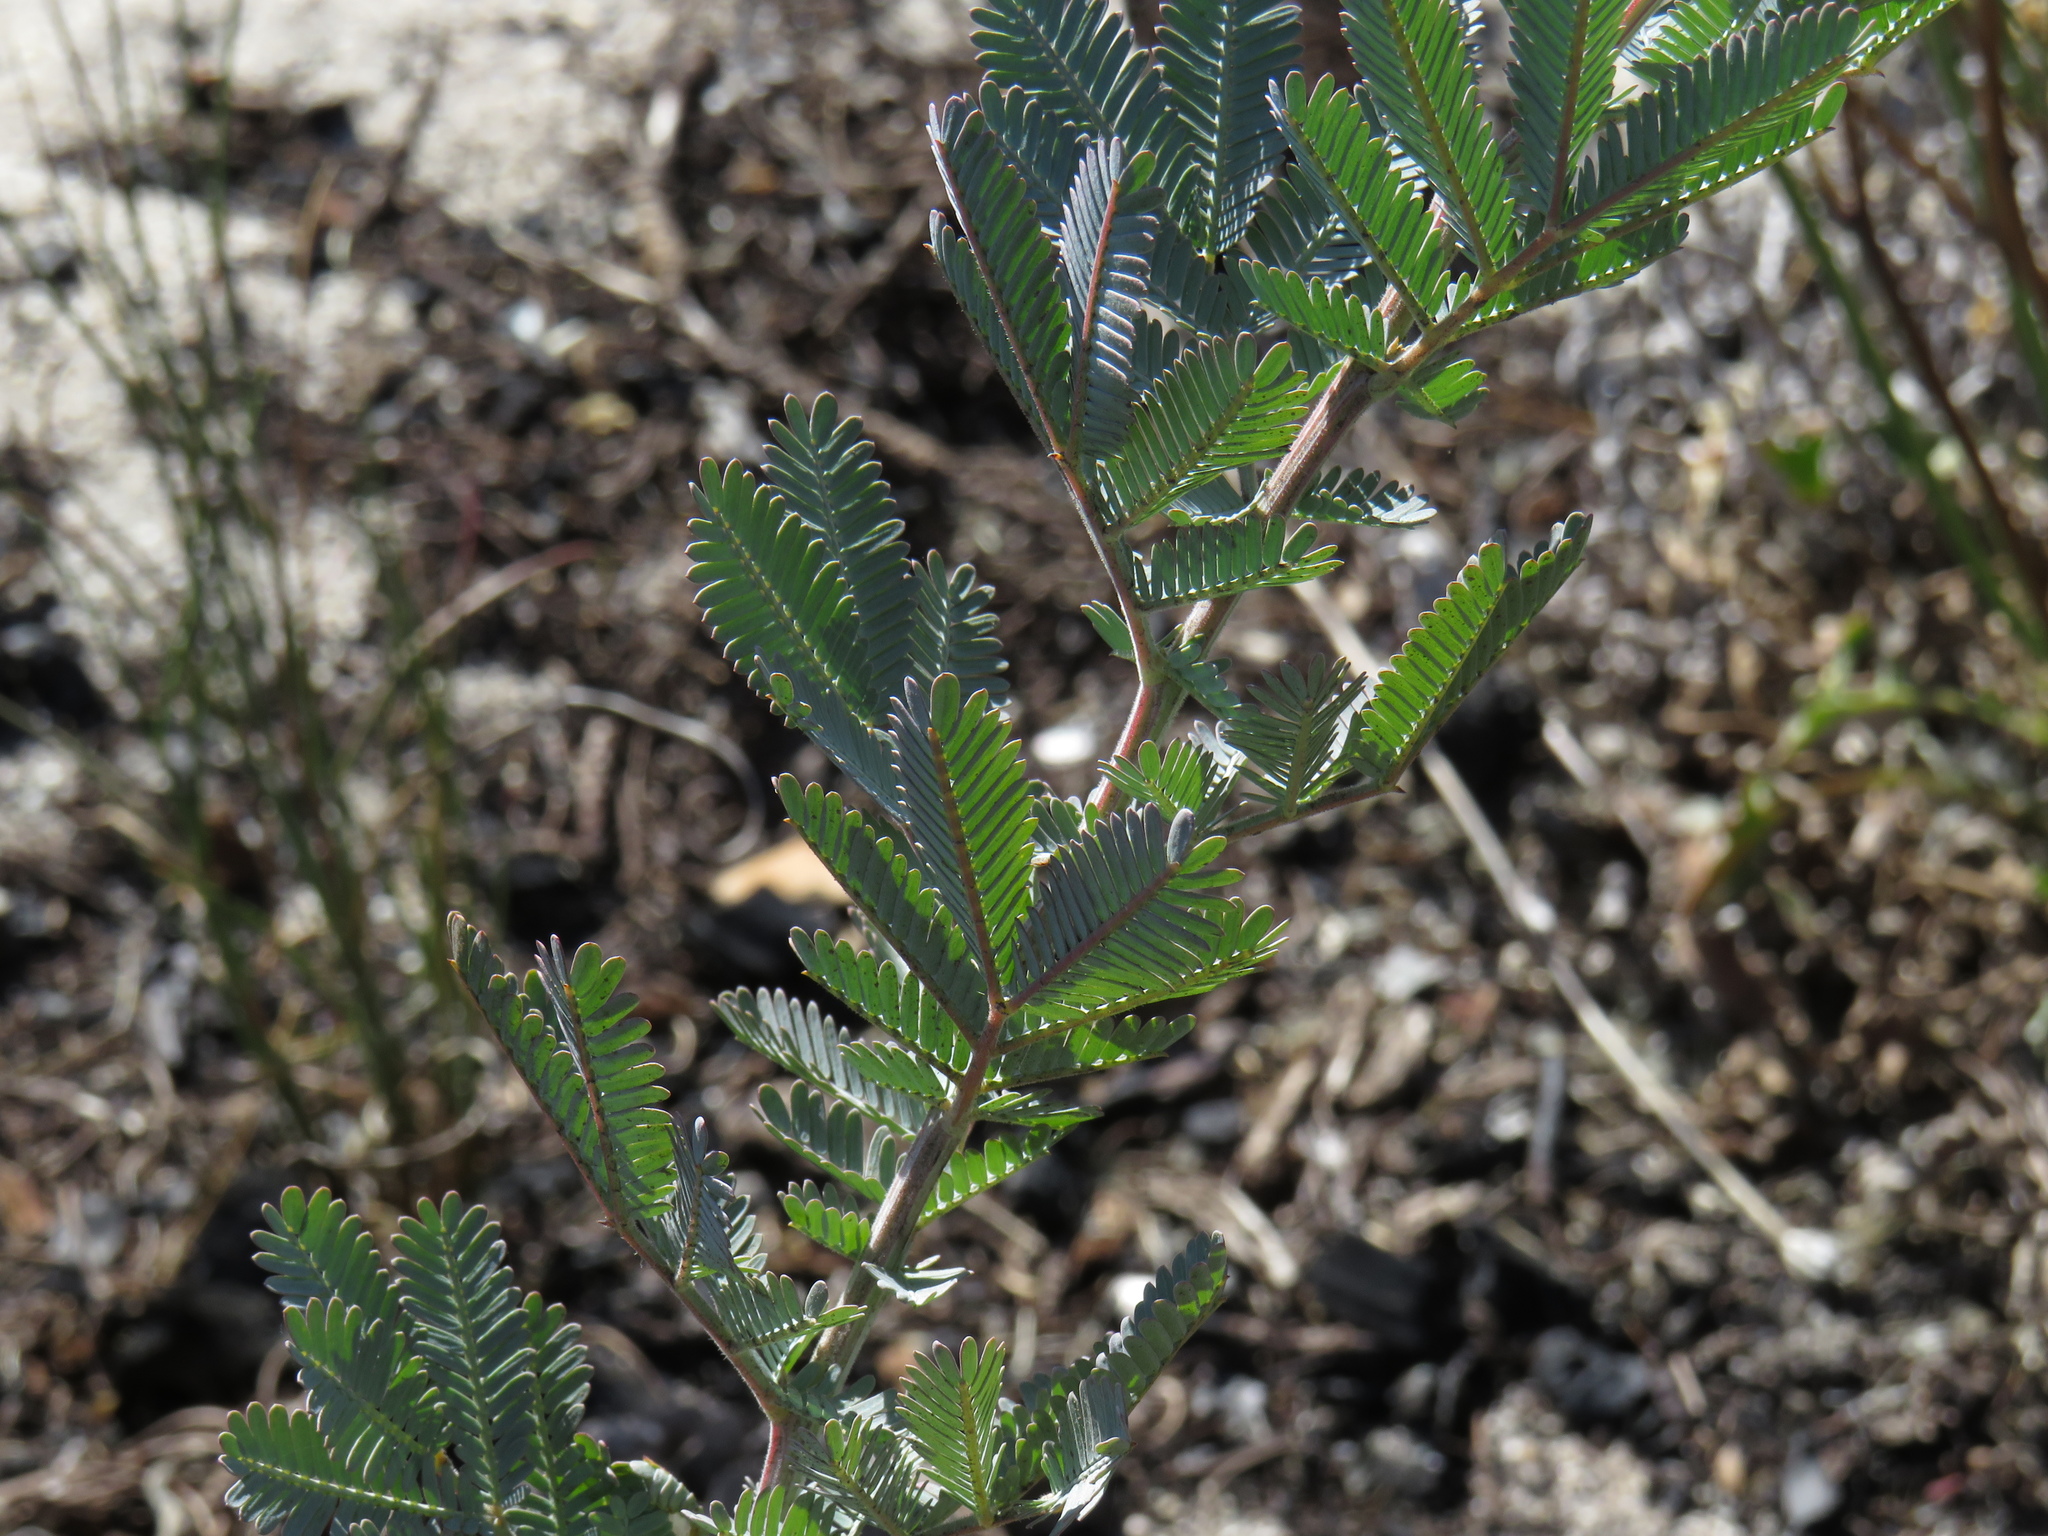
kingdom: Plantae
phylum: Tracheophyta
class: Magnoliopsida
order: Fabales
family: Fabaceae
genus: Acacia
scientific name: Acacia baileyana
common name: Cootamundra wattle
